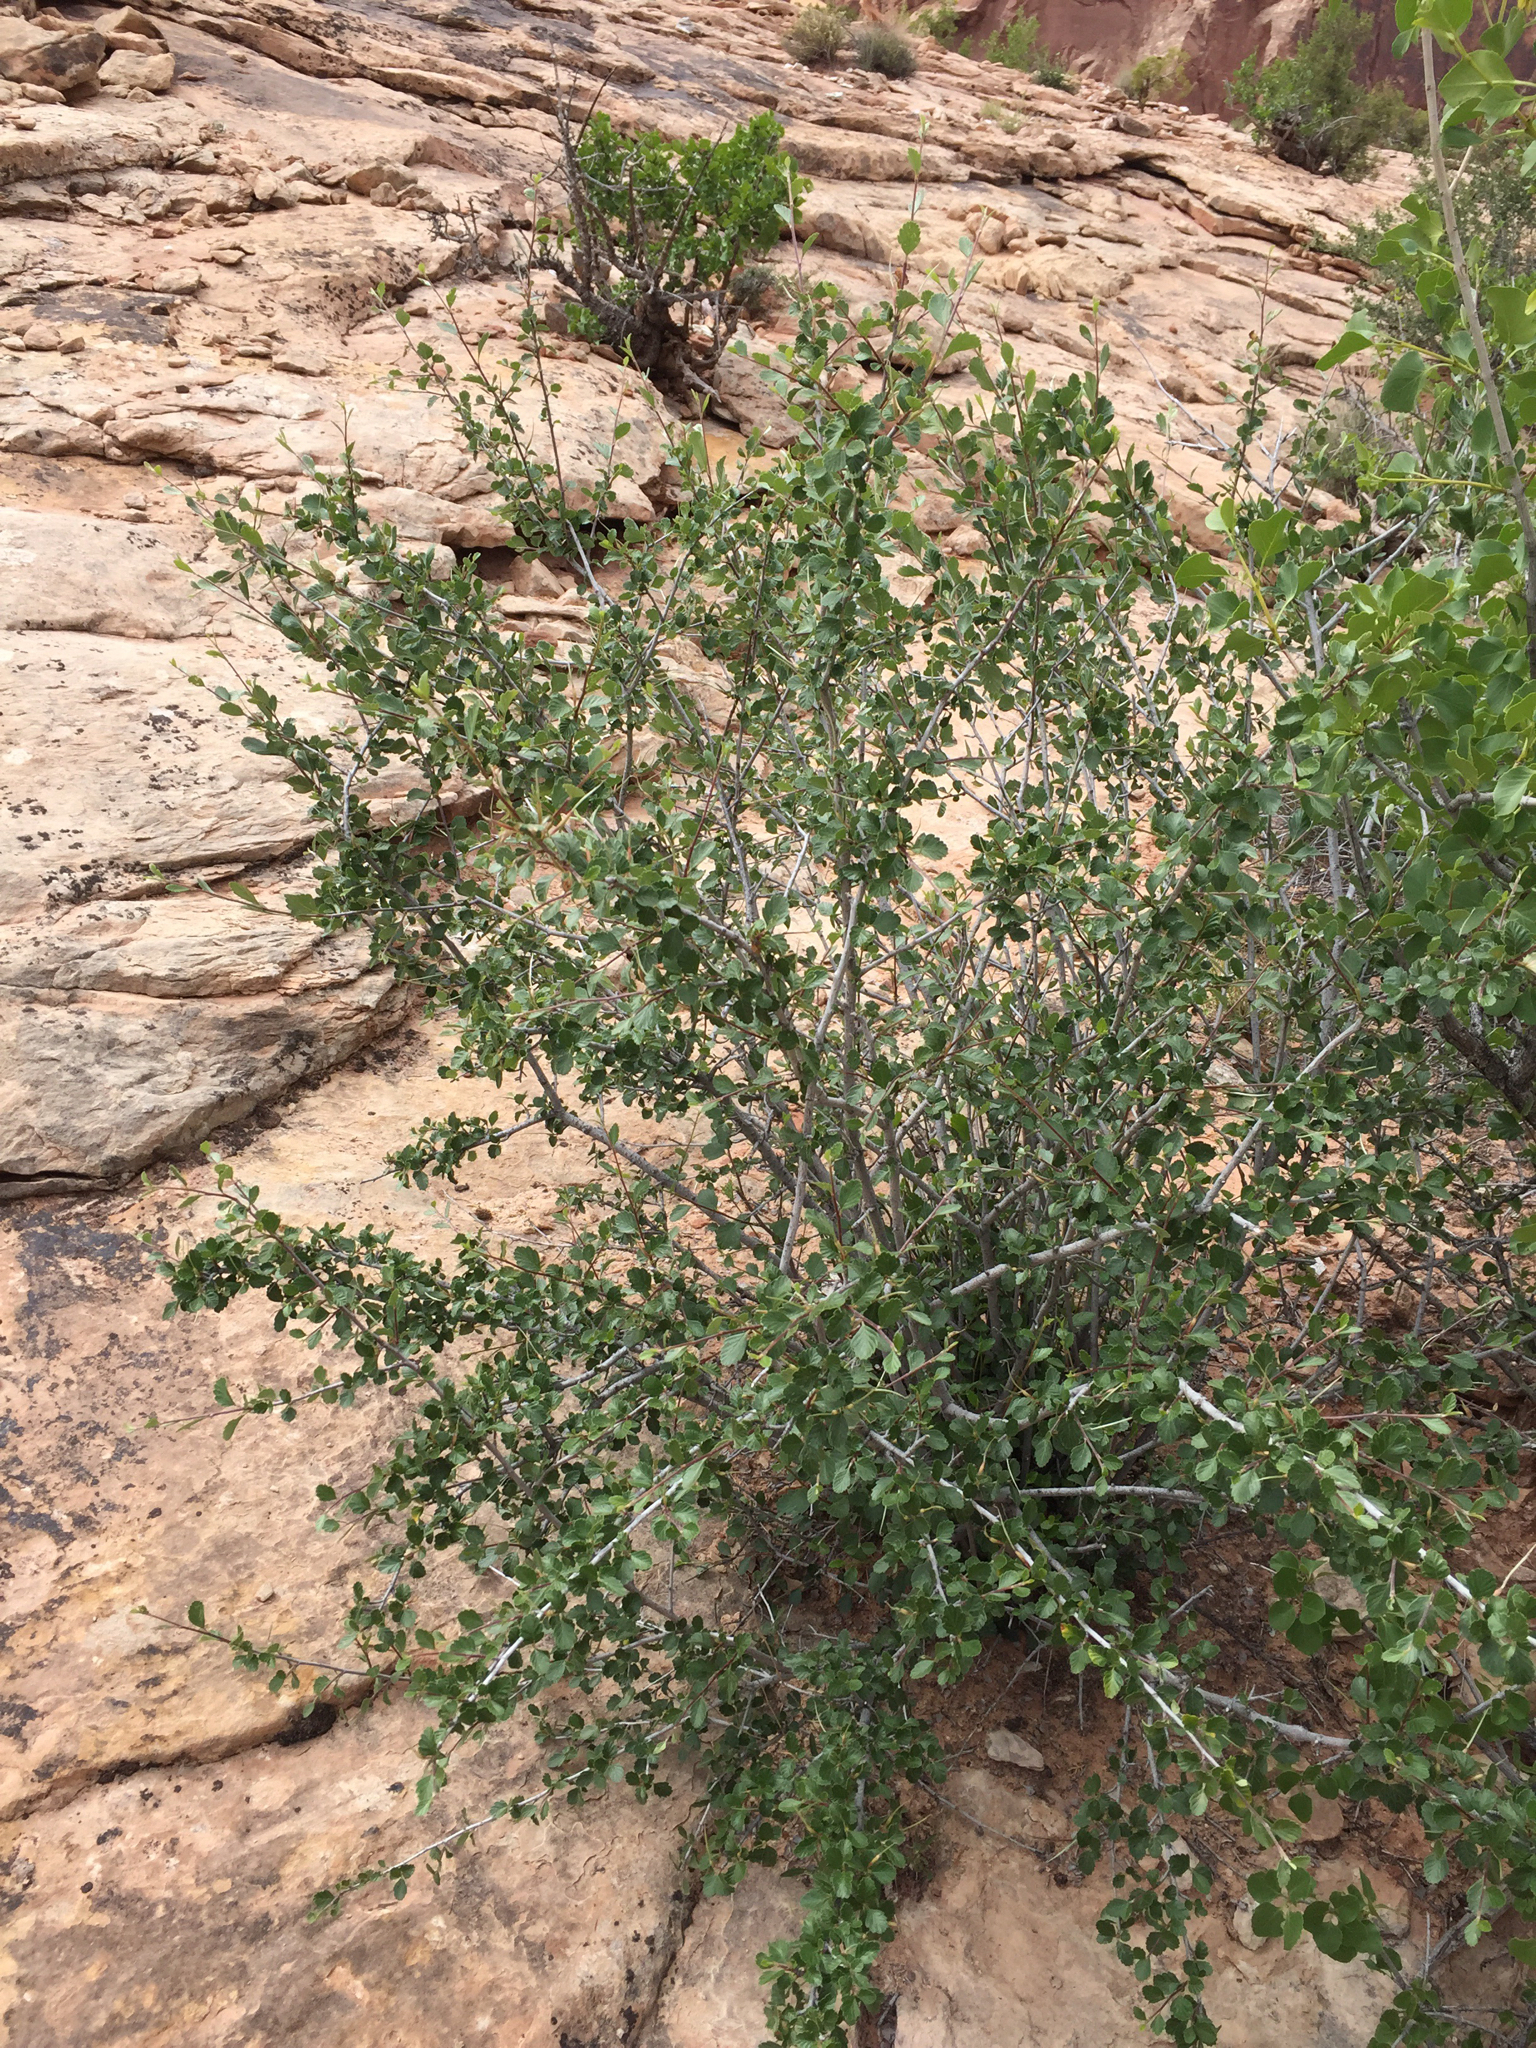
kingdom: Plantae
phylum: Tracheophyta
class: Magnoliopsida
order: Rosales
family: Rosaceae
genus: Cercocarpus
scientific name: Cercocarpus montanus
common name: Alder-leaf cercocarpus
